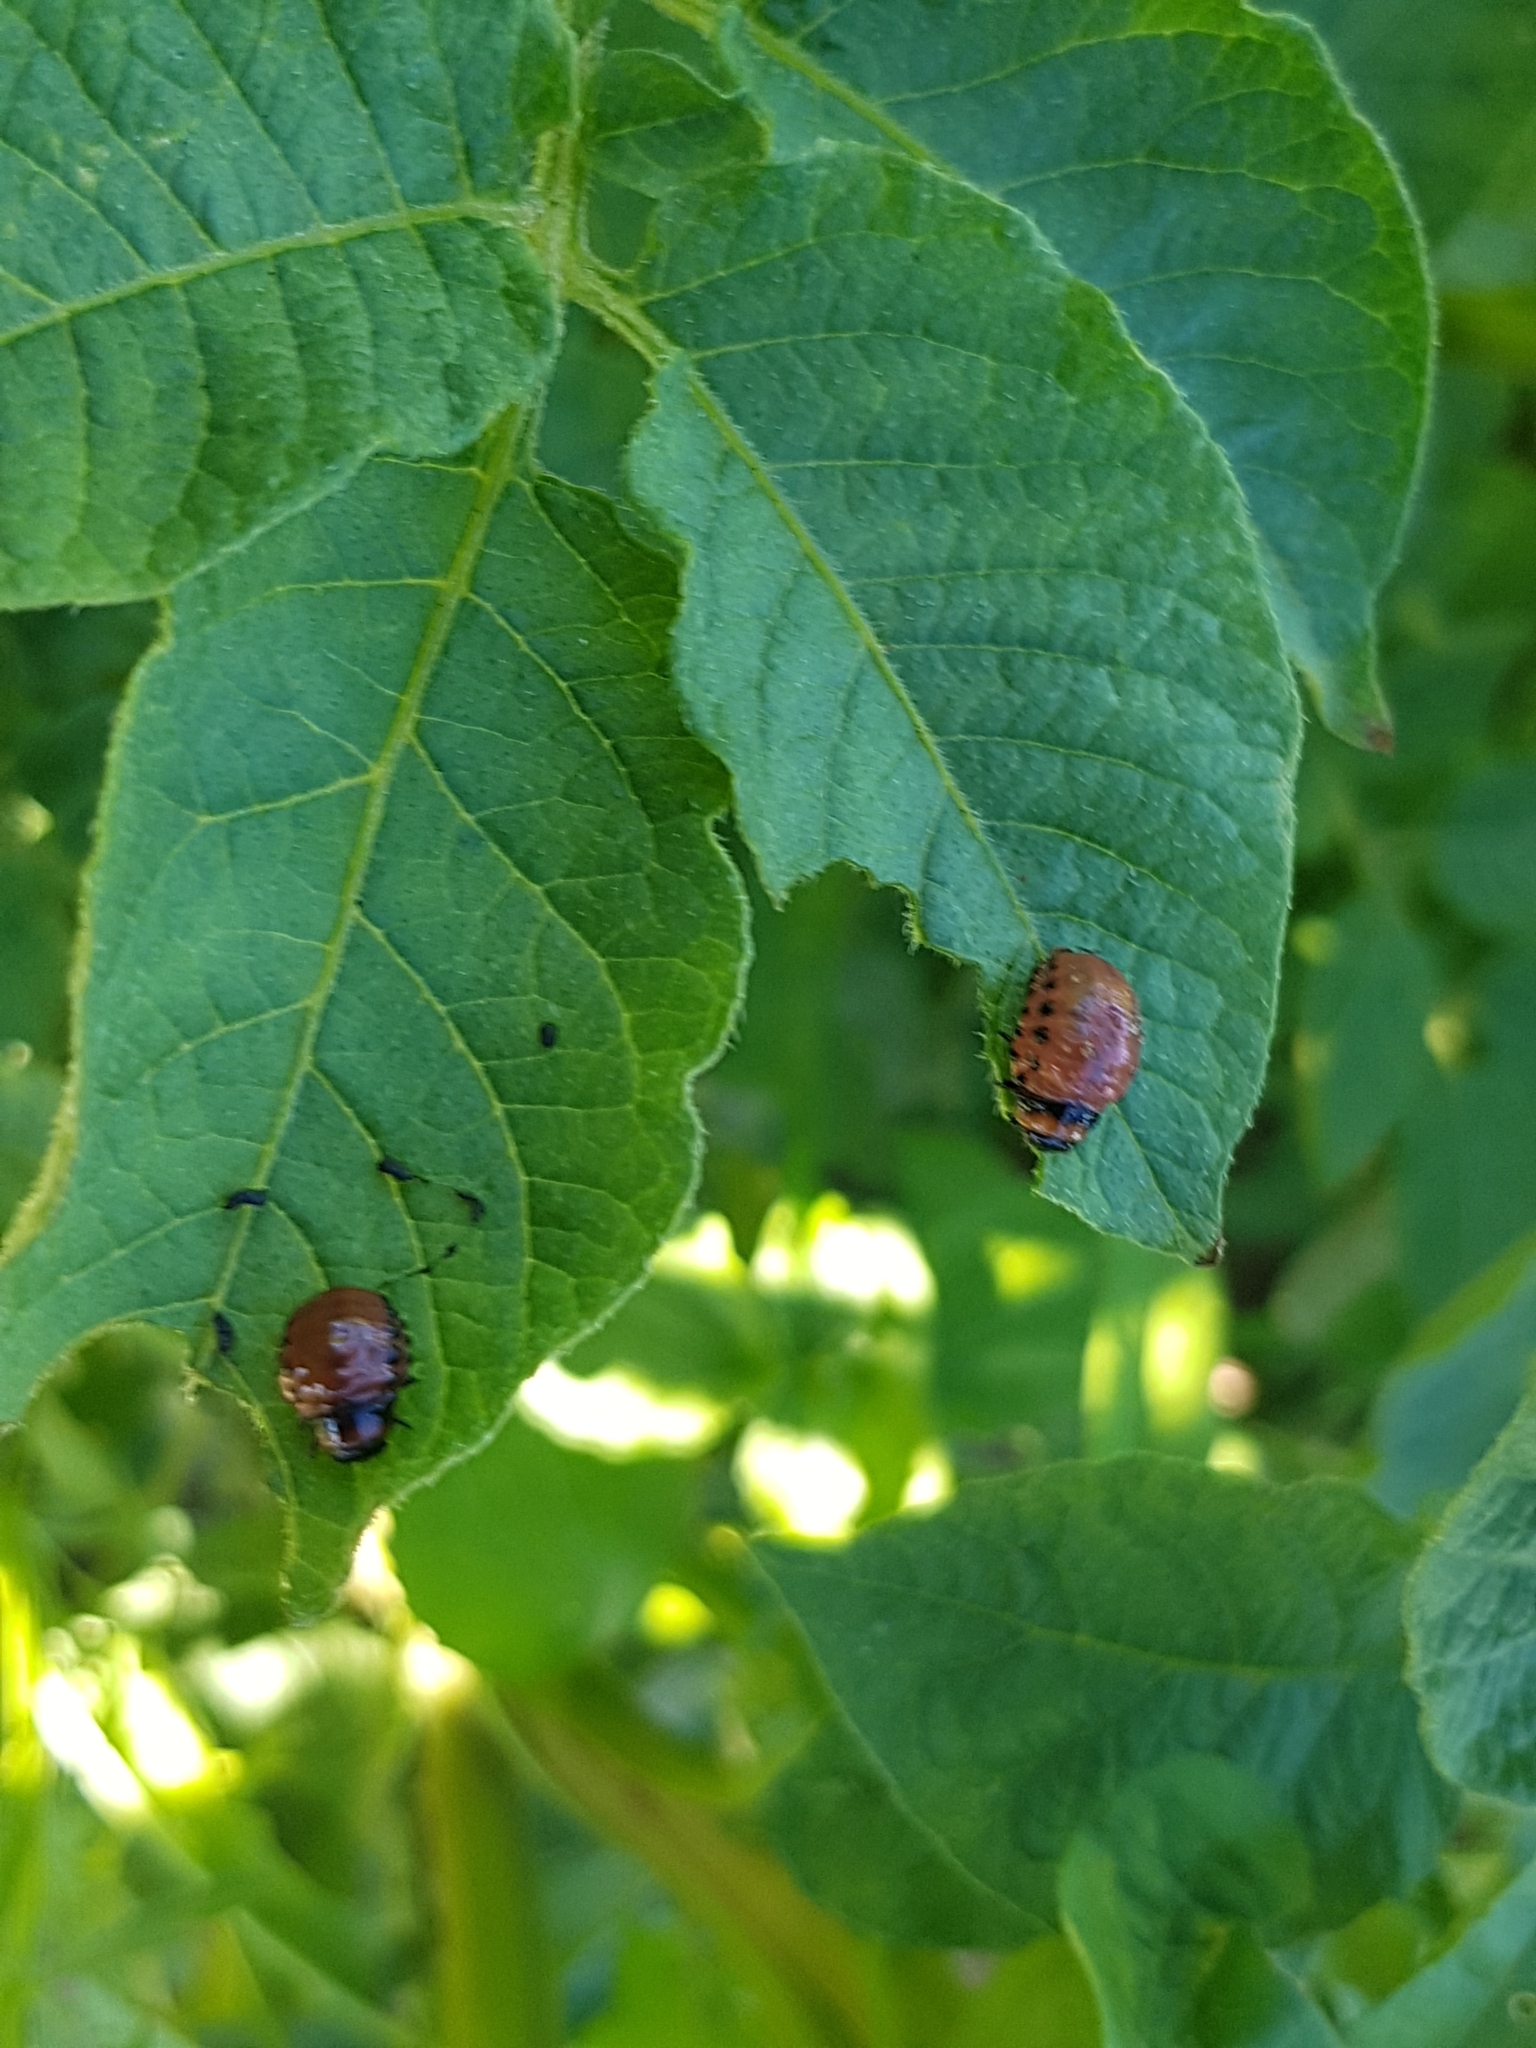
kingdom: Animalia
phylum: Arthropoda
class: Insecta
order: Coleoptera
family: Chrysomelidae
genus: Leptinotarsa
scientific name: Leptinotarsa decemlineata
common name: Colorado potato beetle
